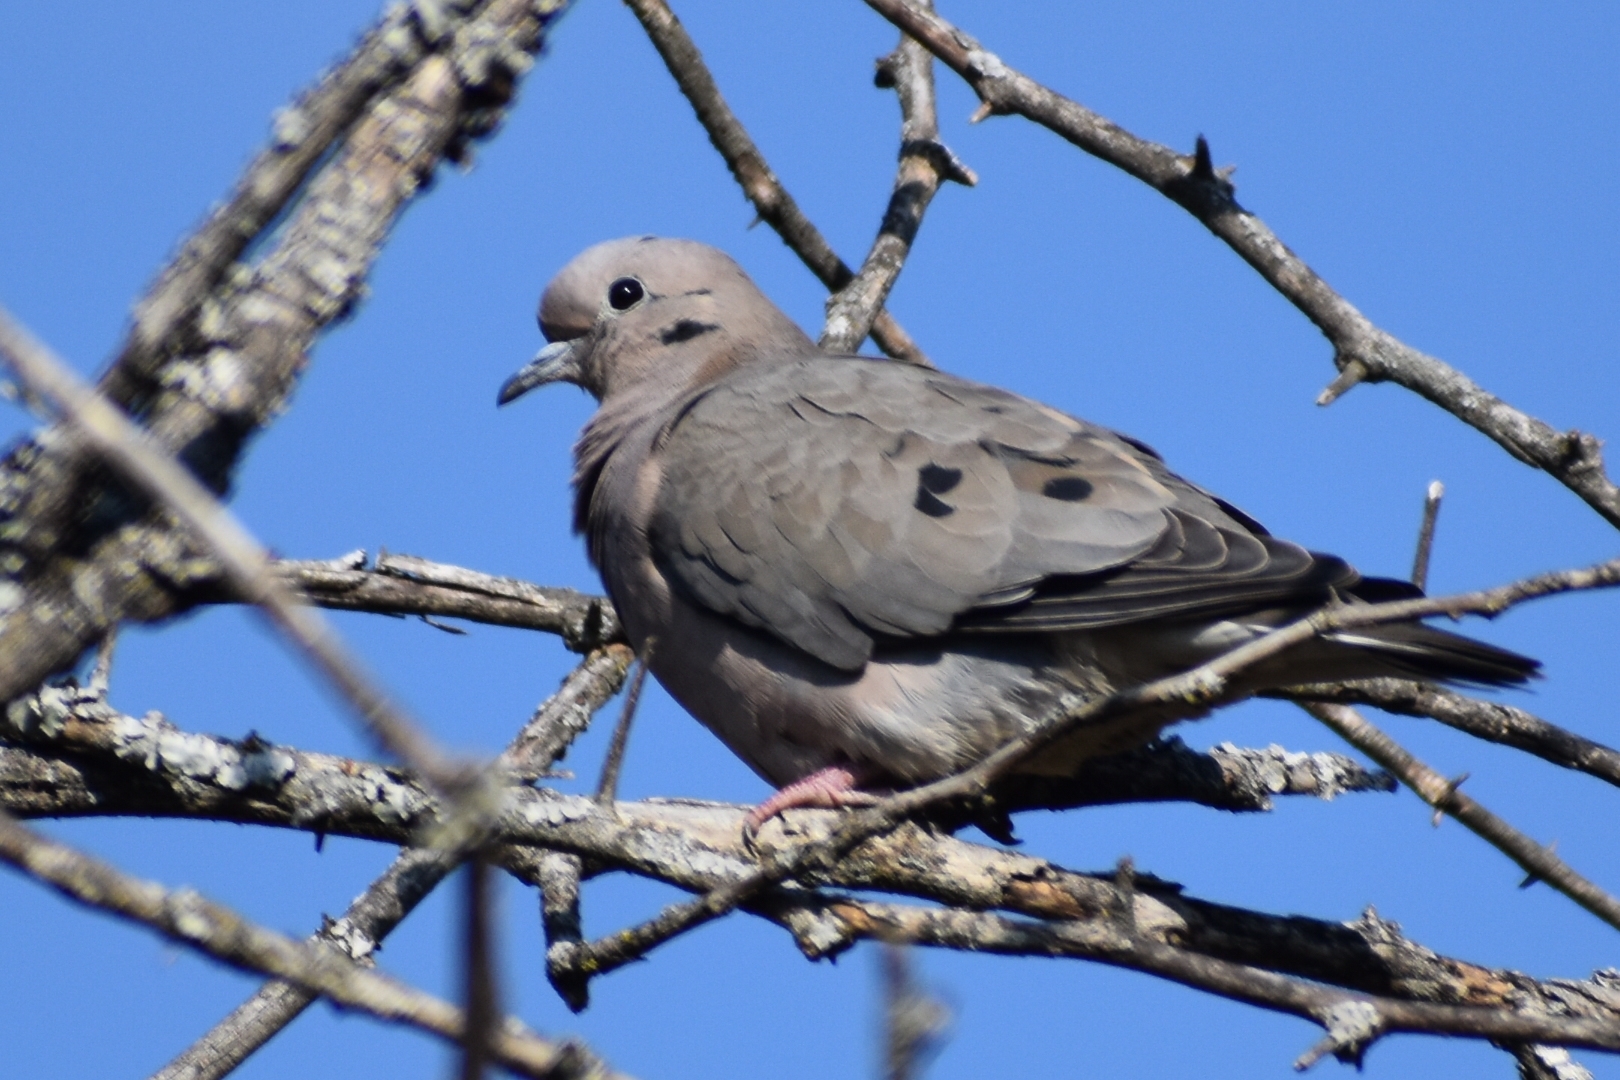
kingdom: Animalia
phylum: Chordata
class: Aves
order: Columbiformes
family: Columbidae
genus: Zenaida
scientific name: Zenaida auriculata
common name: Eared dove
